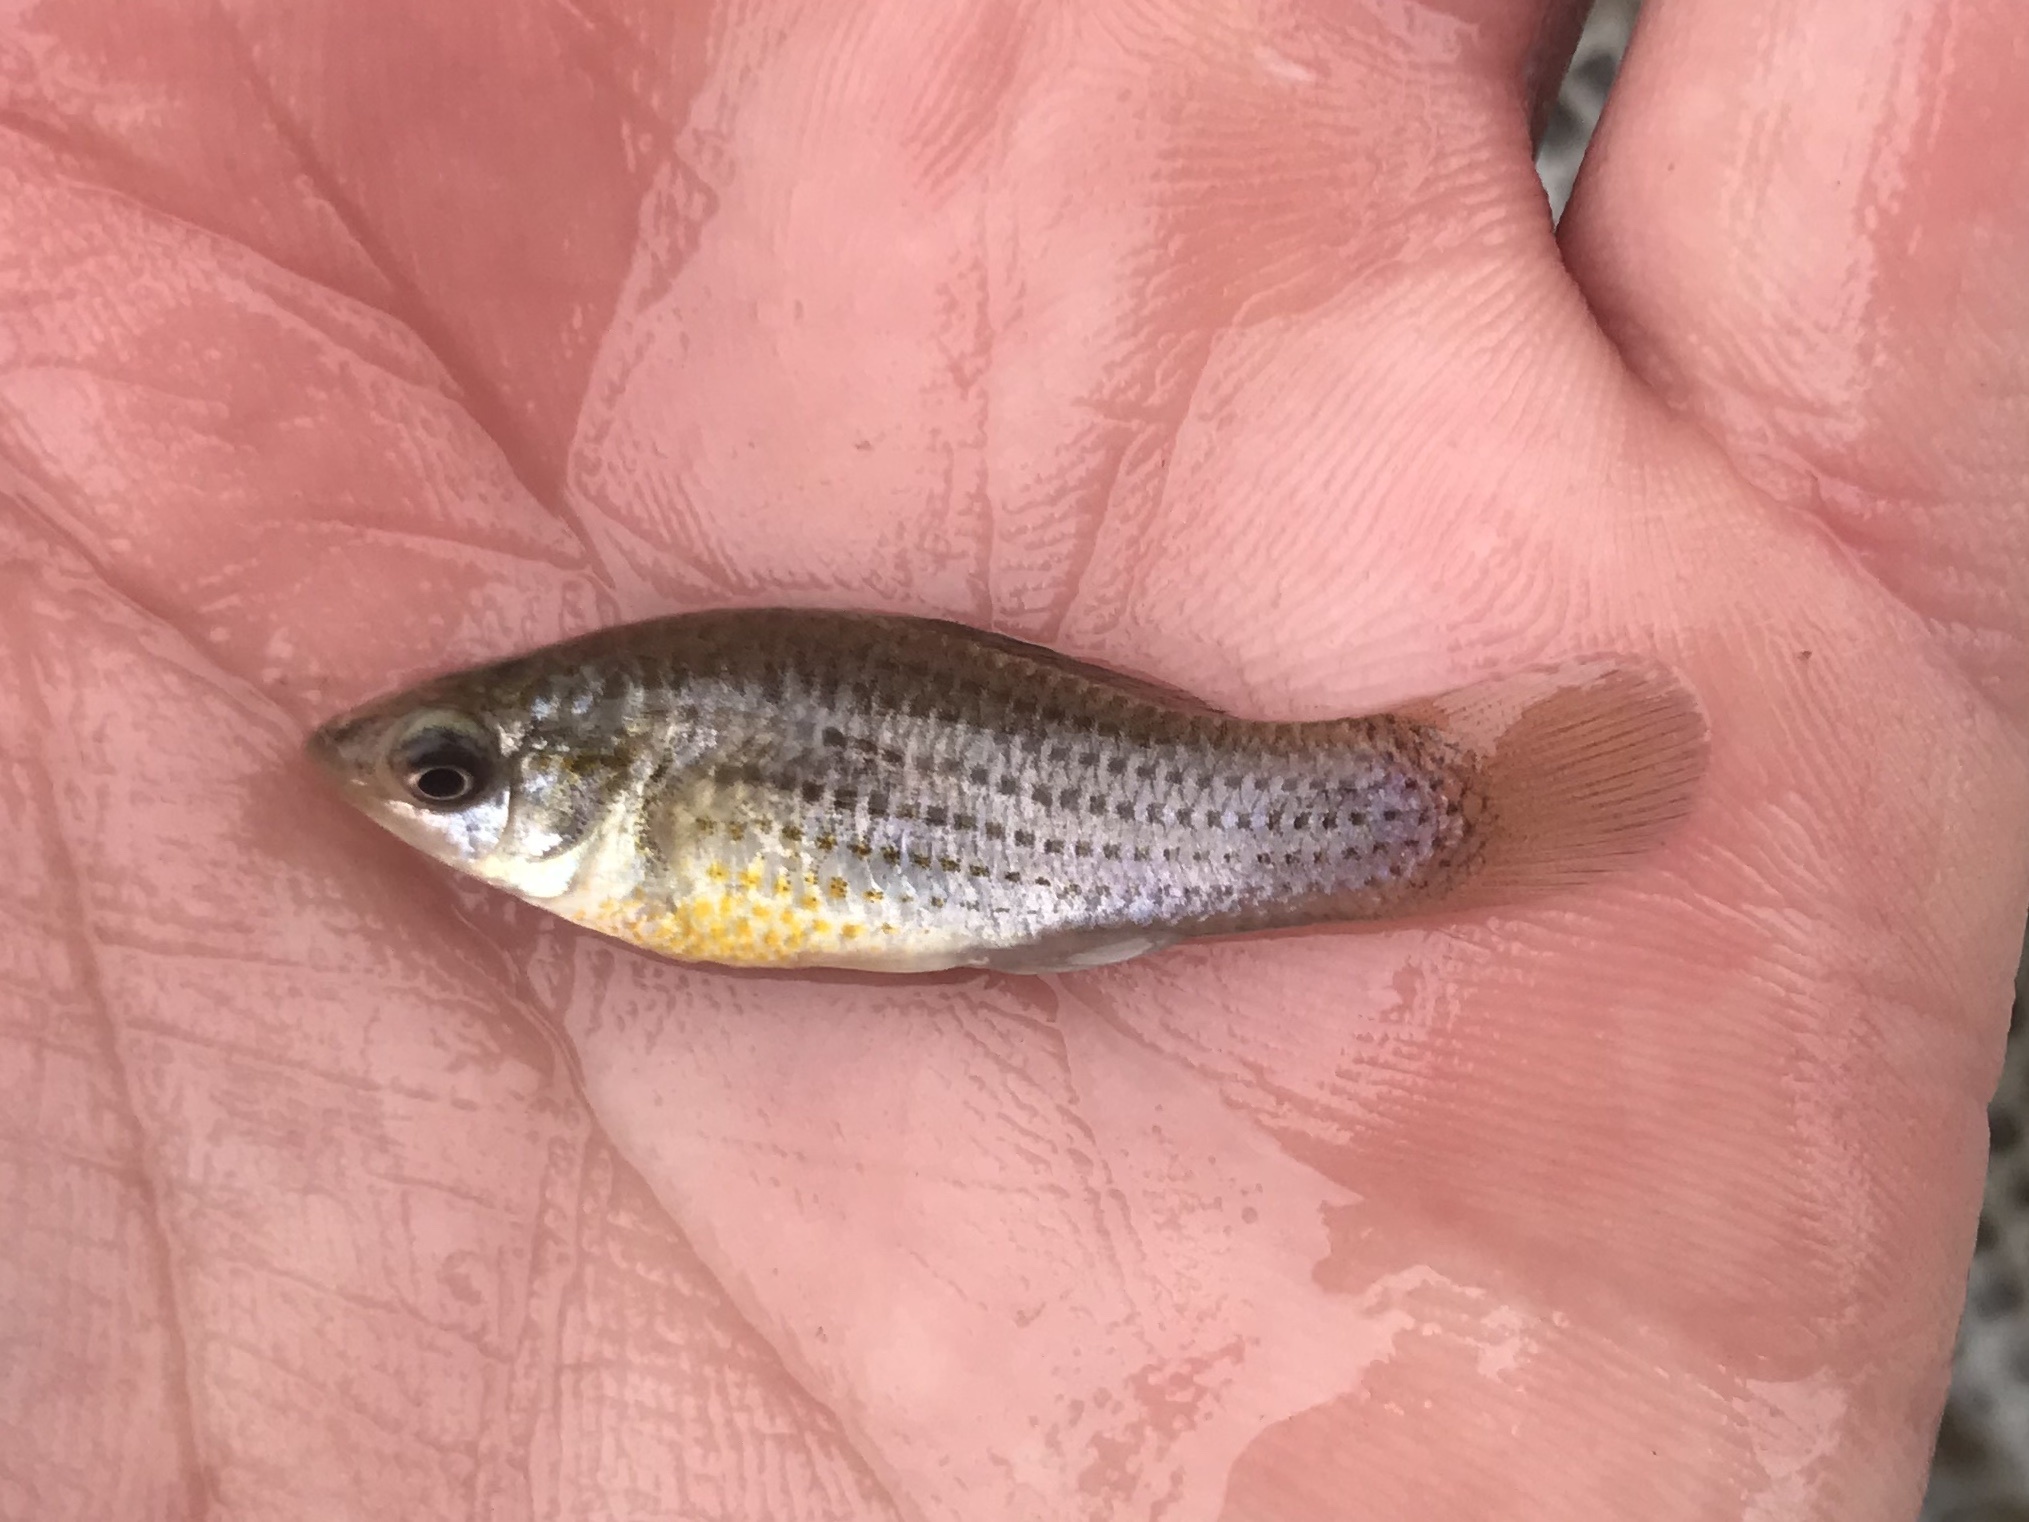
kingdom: Animalia
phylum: Chordata
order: Cyprinodontiformes
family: Poeciliidae
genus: Poecilia
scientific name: Poecilia latipinna
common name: Sailfin molly
